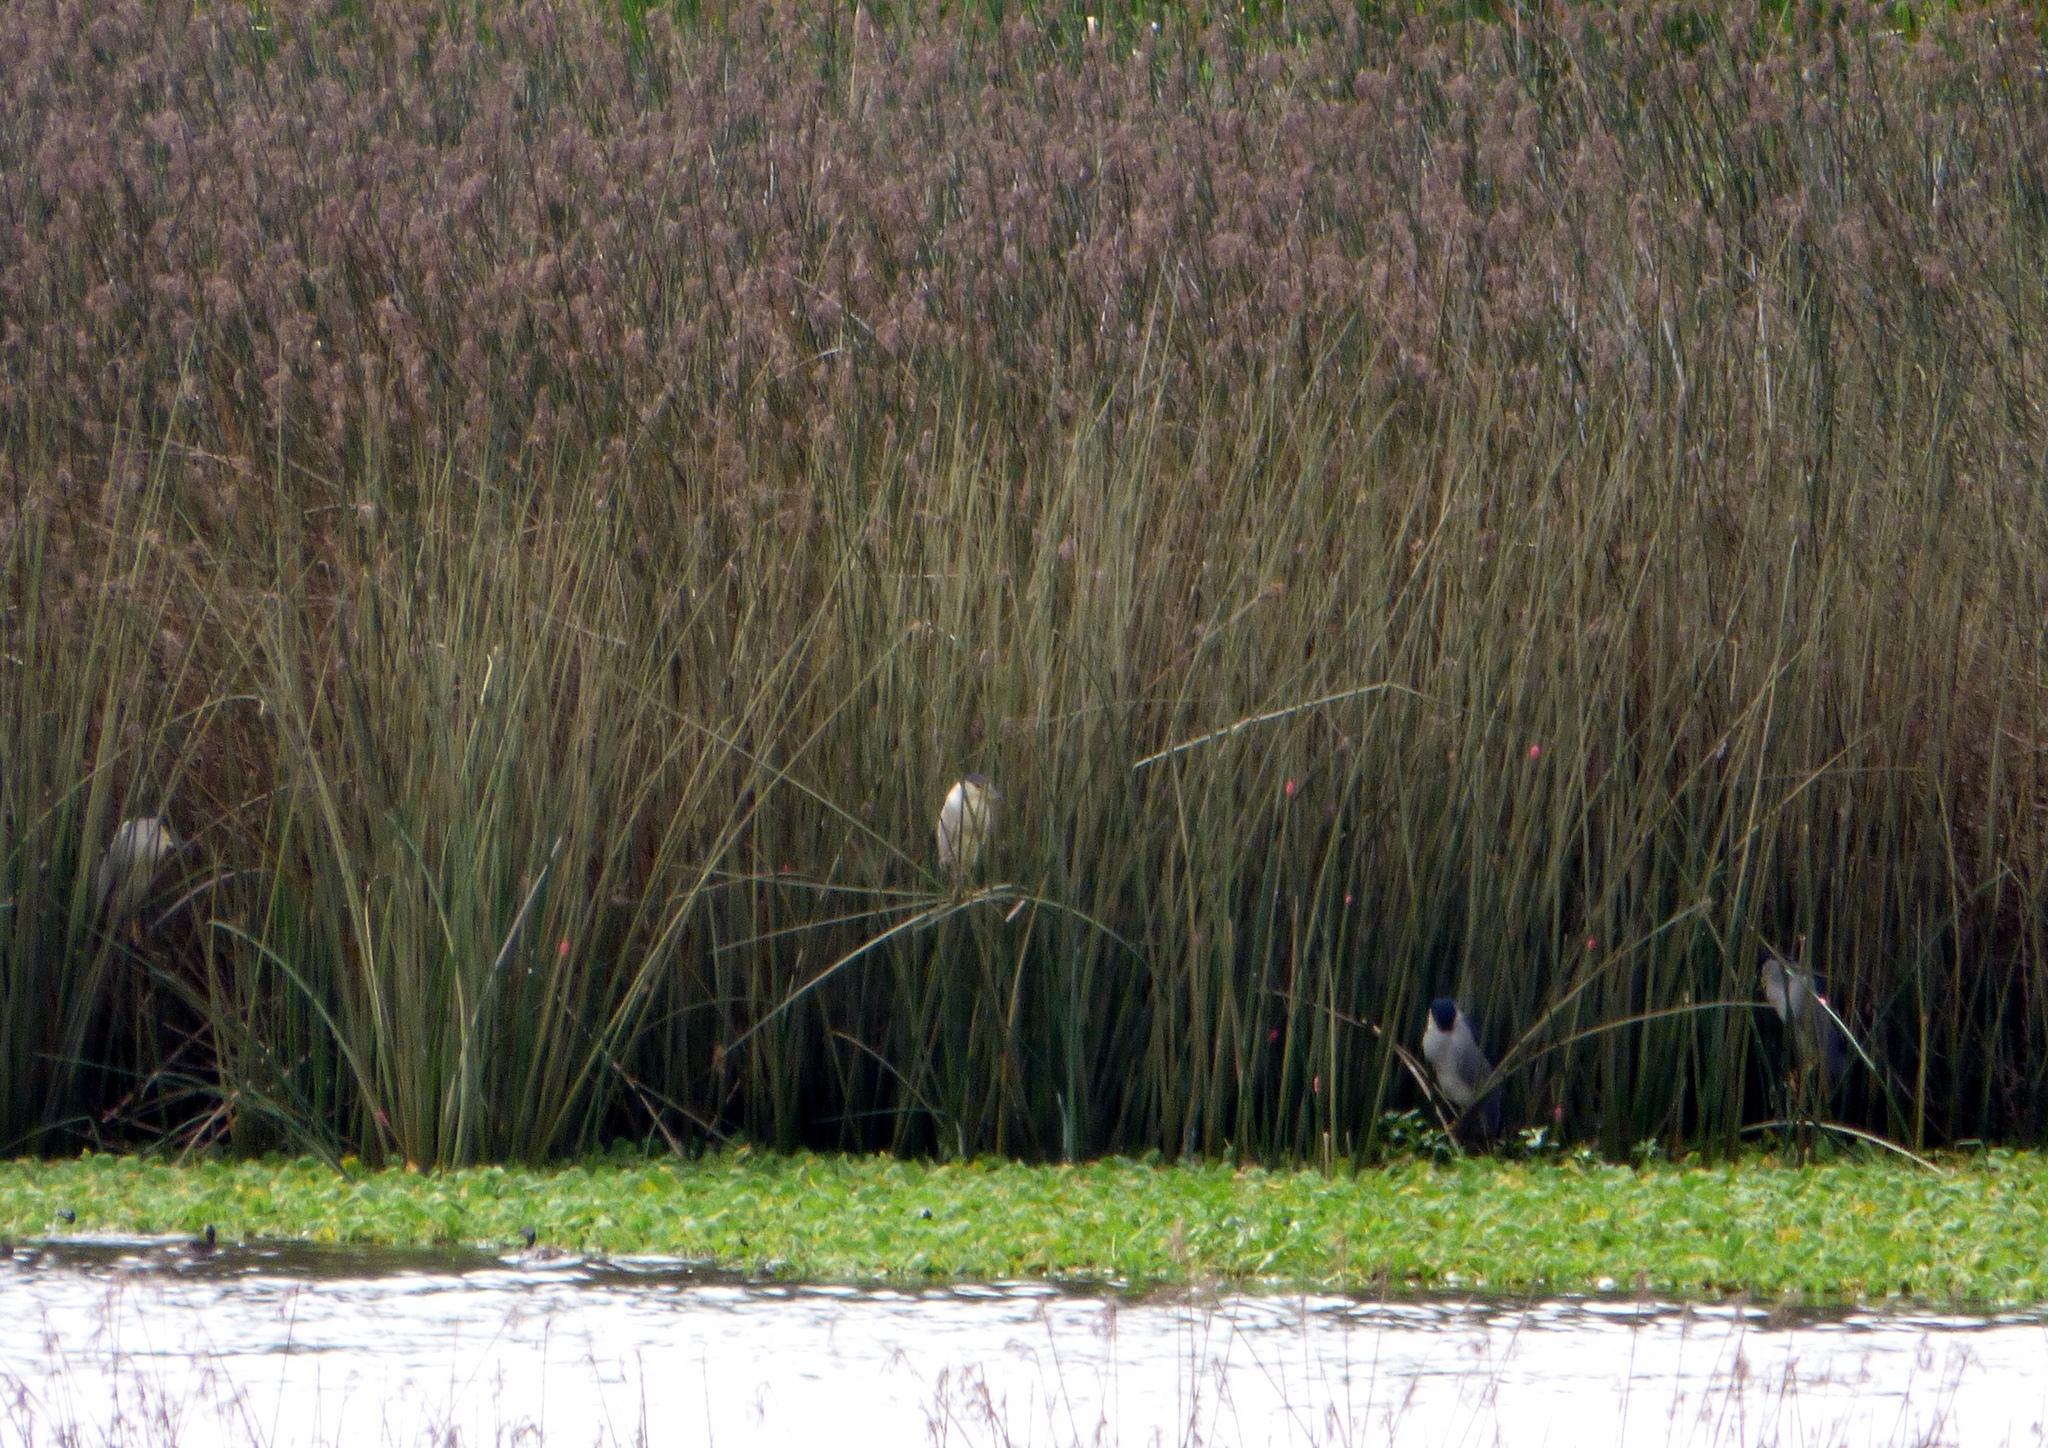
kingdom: Animalia
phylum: Chordata
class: Aves
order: Pelecaniformes
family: Ardeidae
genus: Nycticorax
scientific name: Nycticorax nycticorax
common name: Black-crowned night heron
